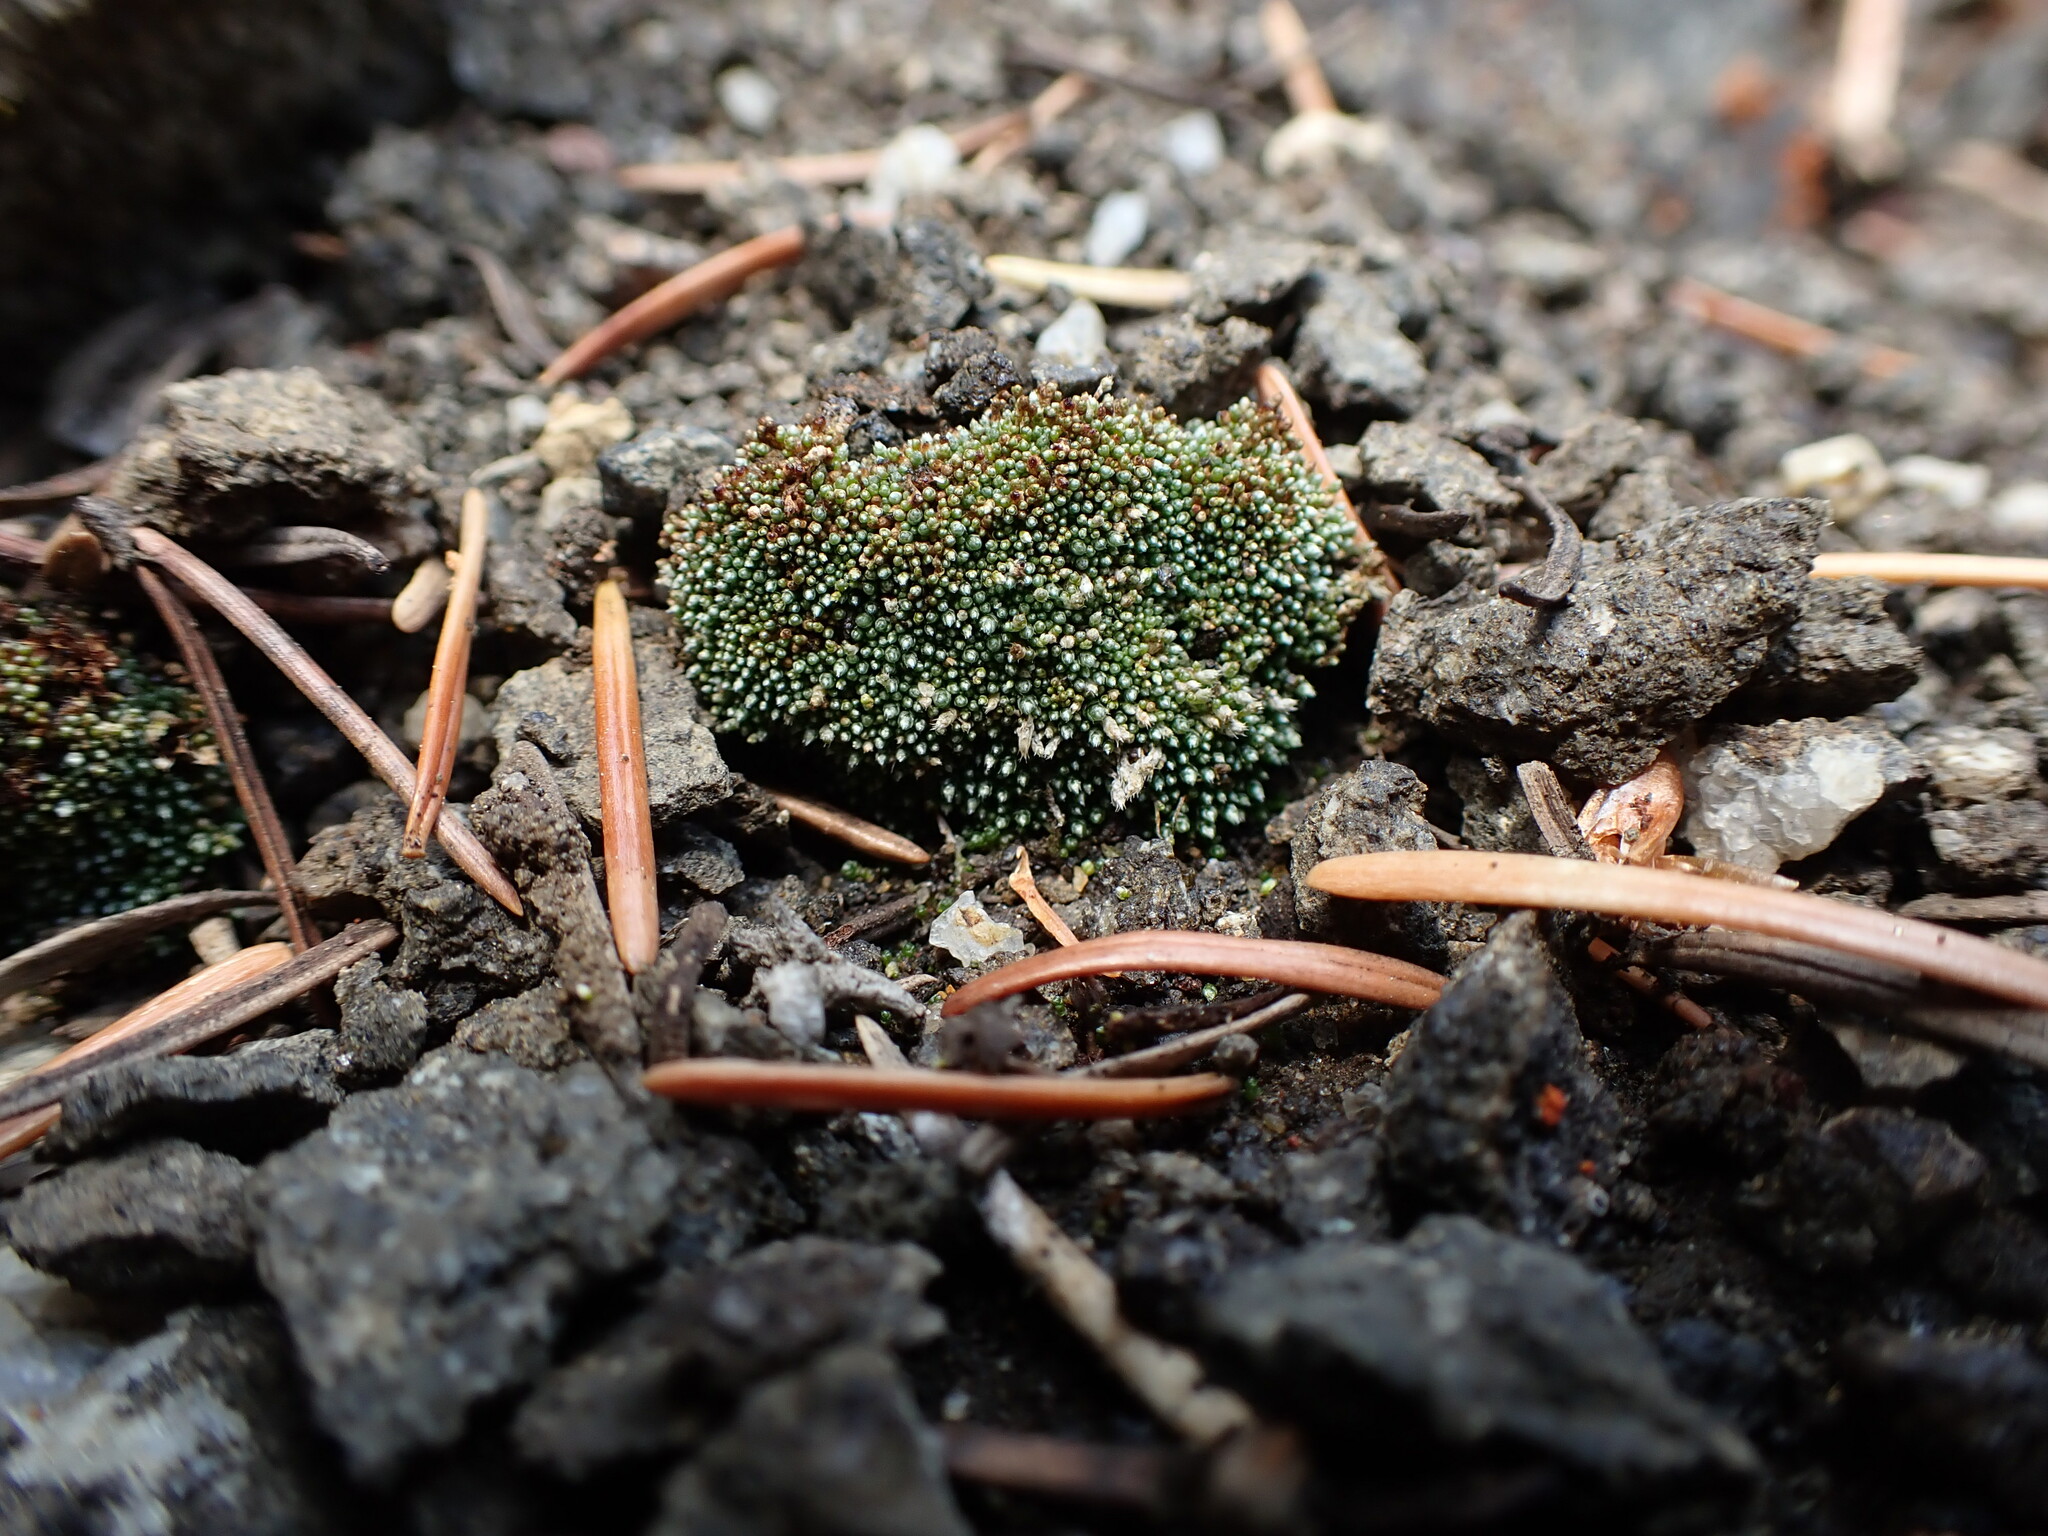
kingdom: Plantae
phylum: Bryophyta
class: Bryopsida
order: Bryales
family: Bryaceae
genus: Bryum
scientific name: Bryum argenteum
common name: Silver-moss
